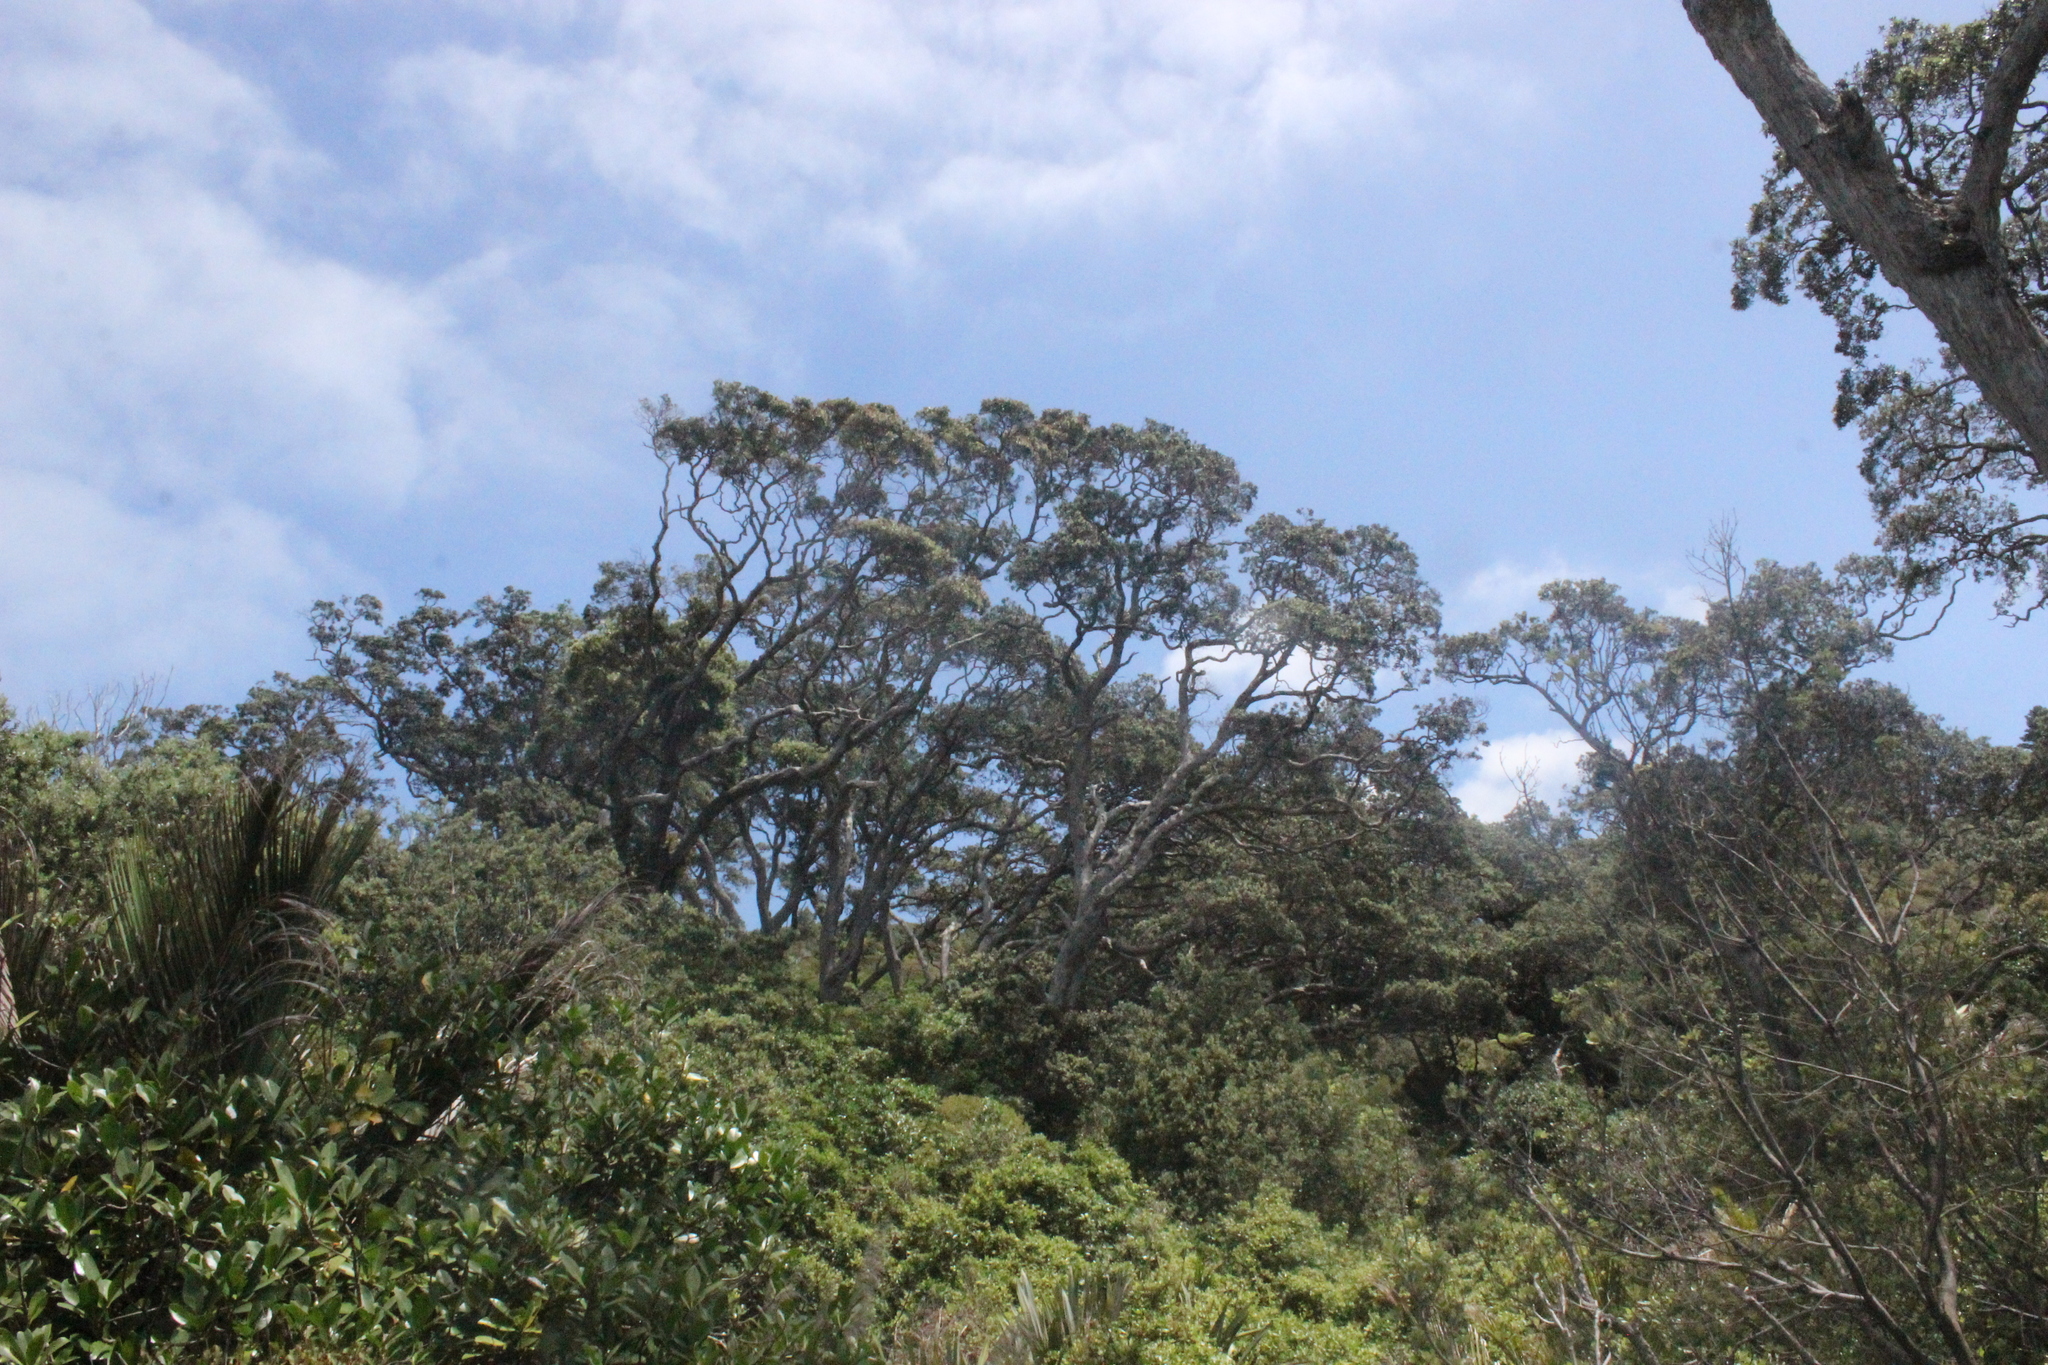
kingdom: Plantae
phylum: Tracheophyta
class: Magnoliopsida
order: Myrtales
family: Myrtaceae
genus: Metrosideros
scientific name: Metrosideros excelsa
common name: New zealand christmastree
